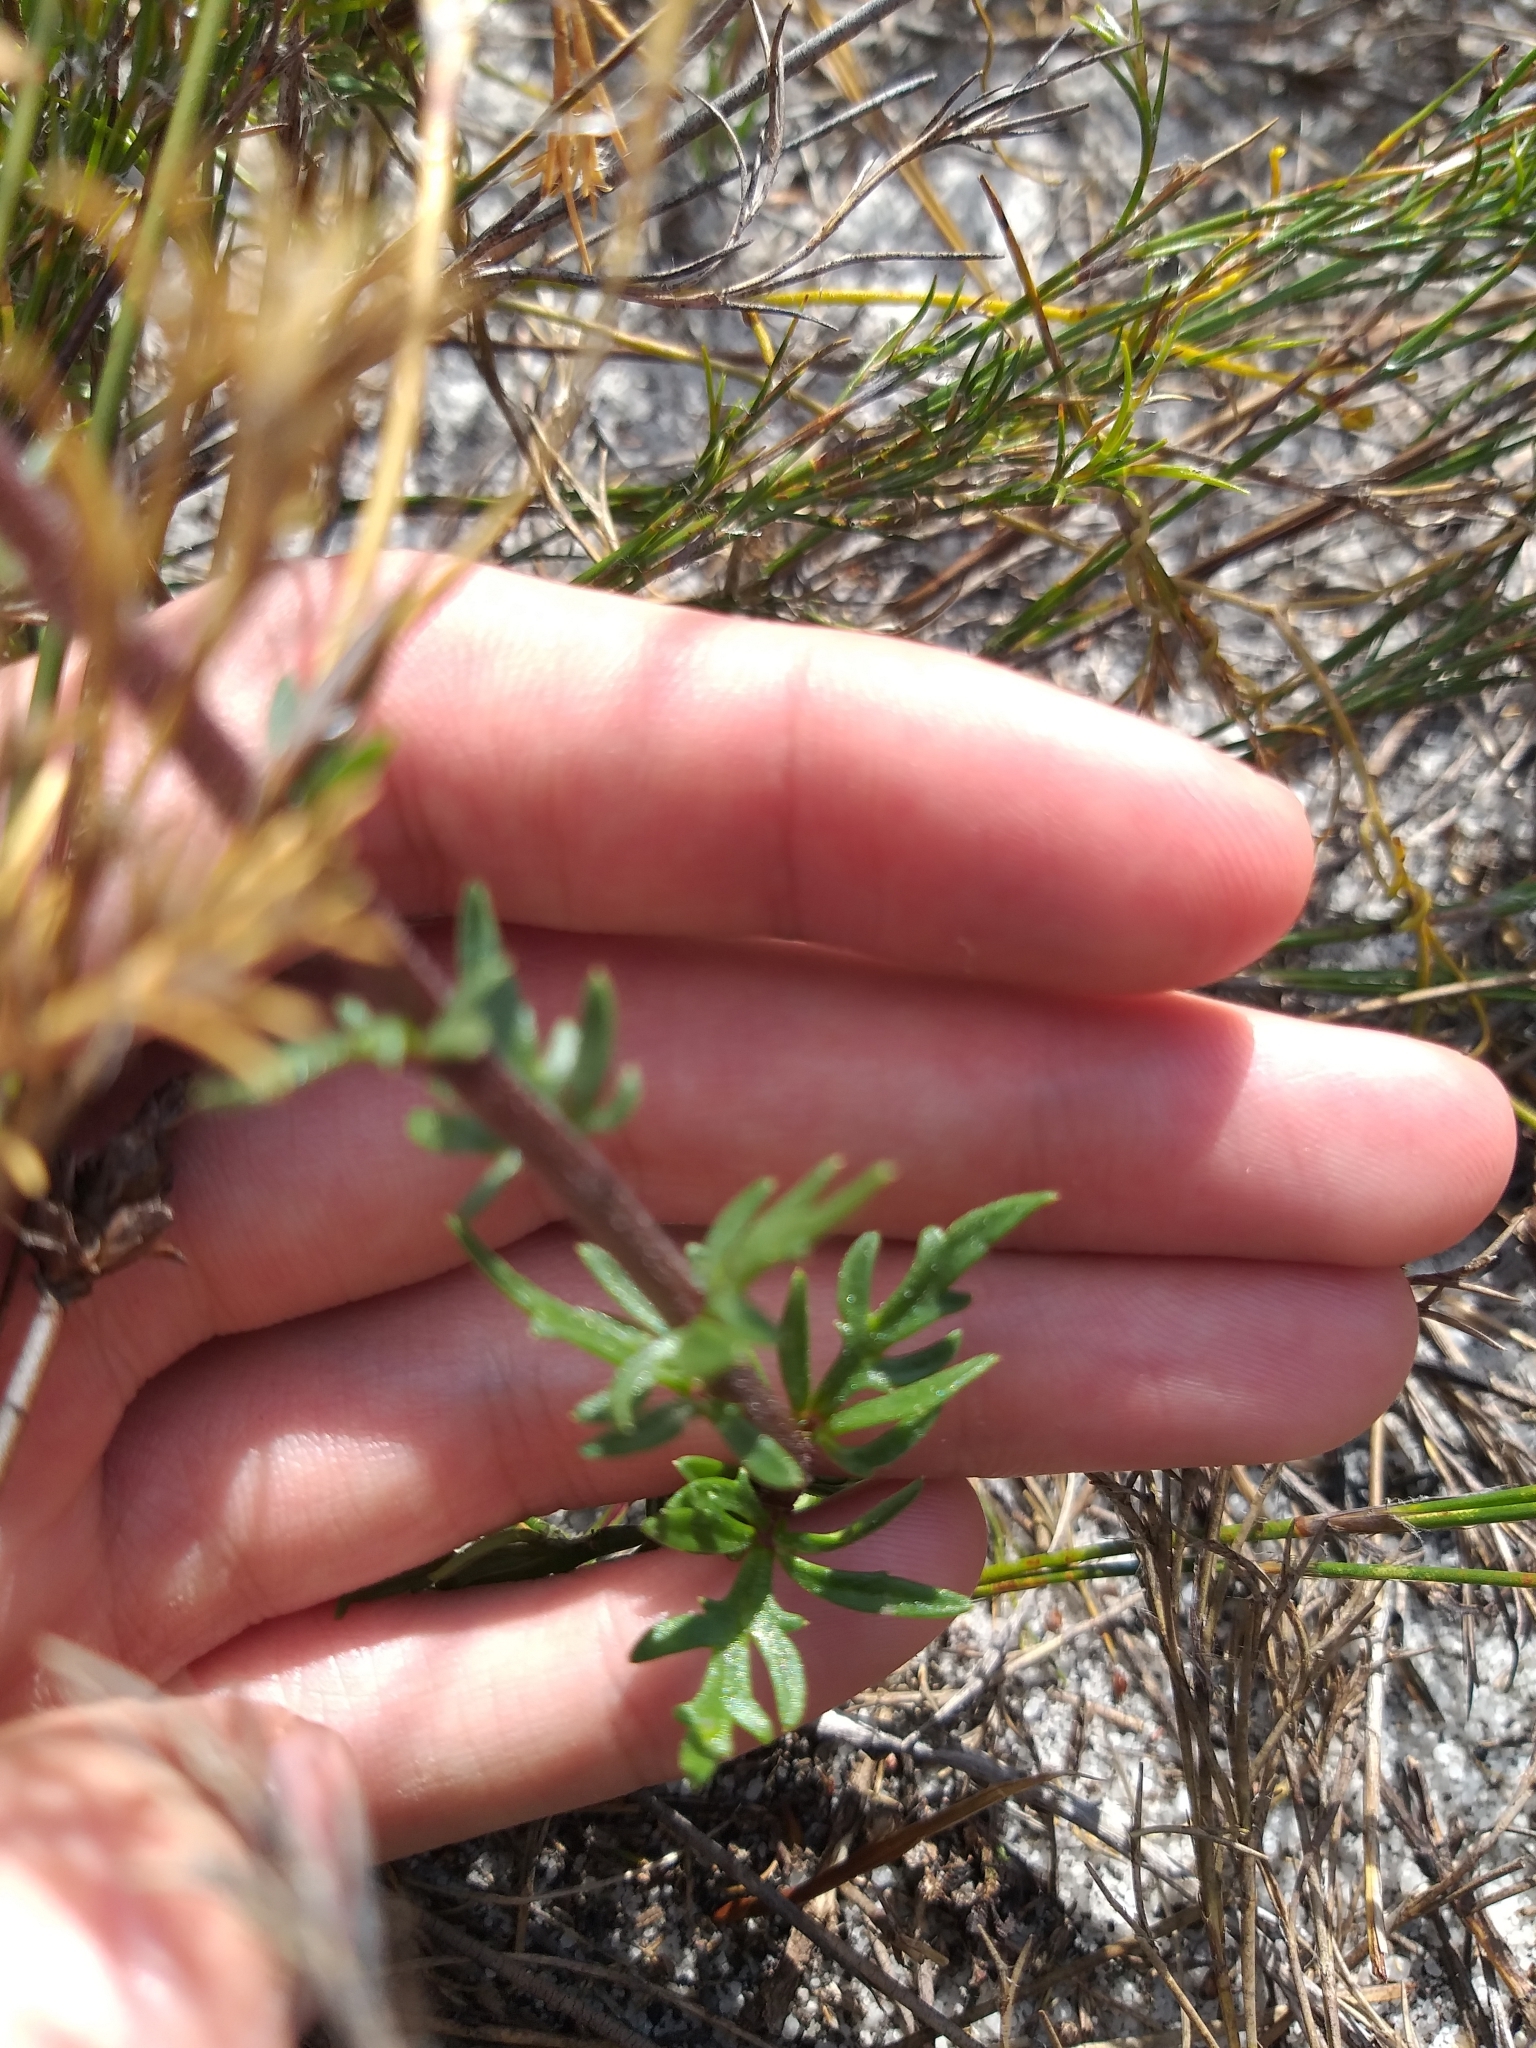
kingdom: Plantae
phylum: Tracheophyta
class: Magnoliopsida
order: Asterales
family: Campanulaceae
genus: Cyphia
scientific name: Cyphia bulbosa
